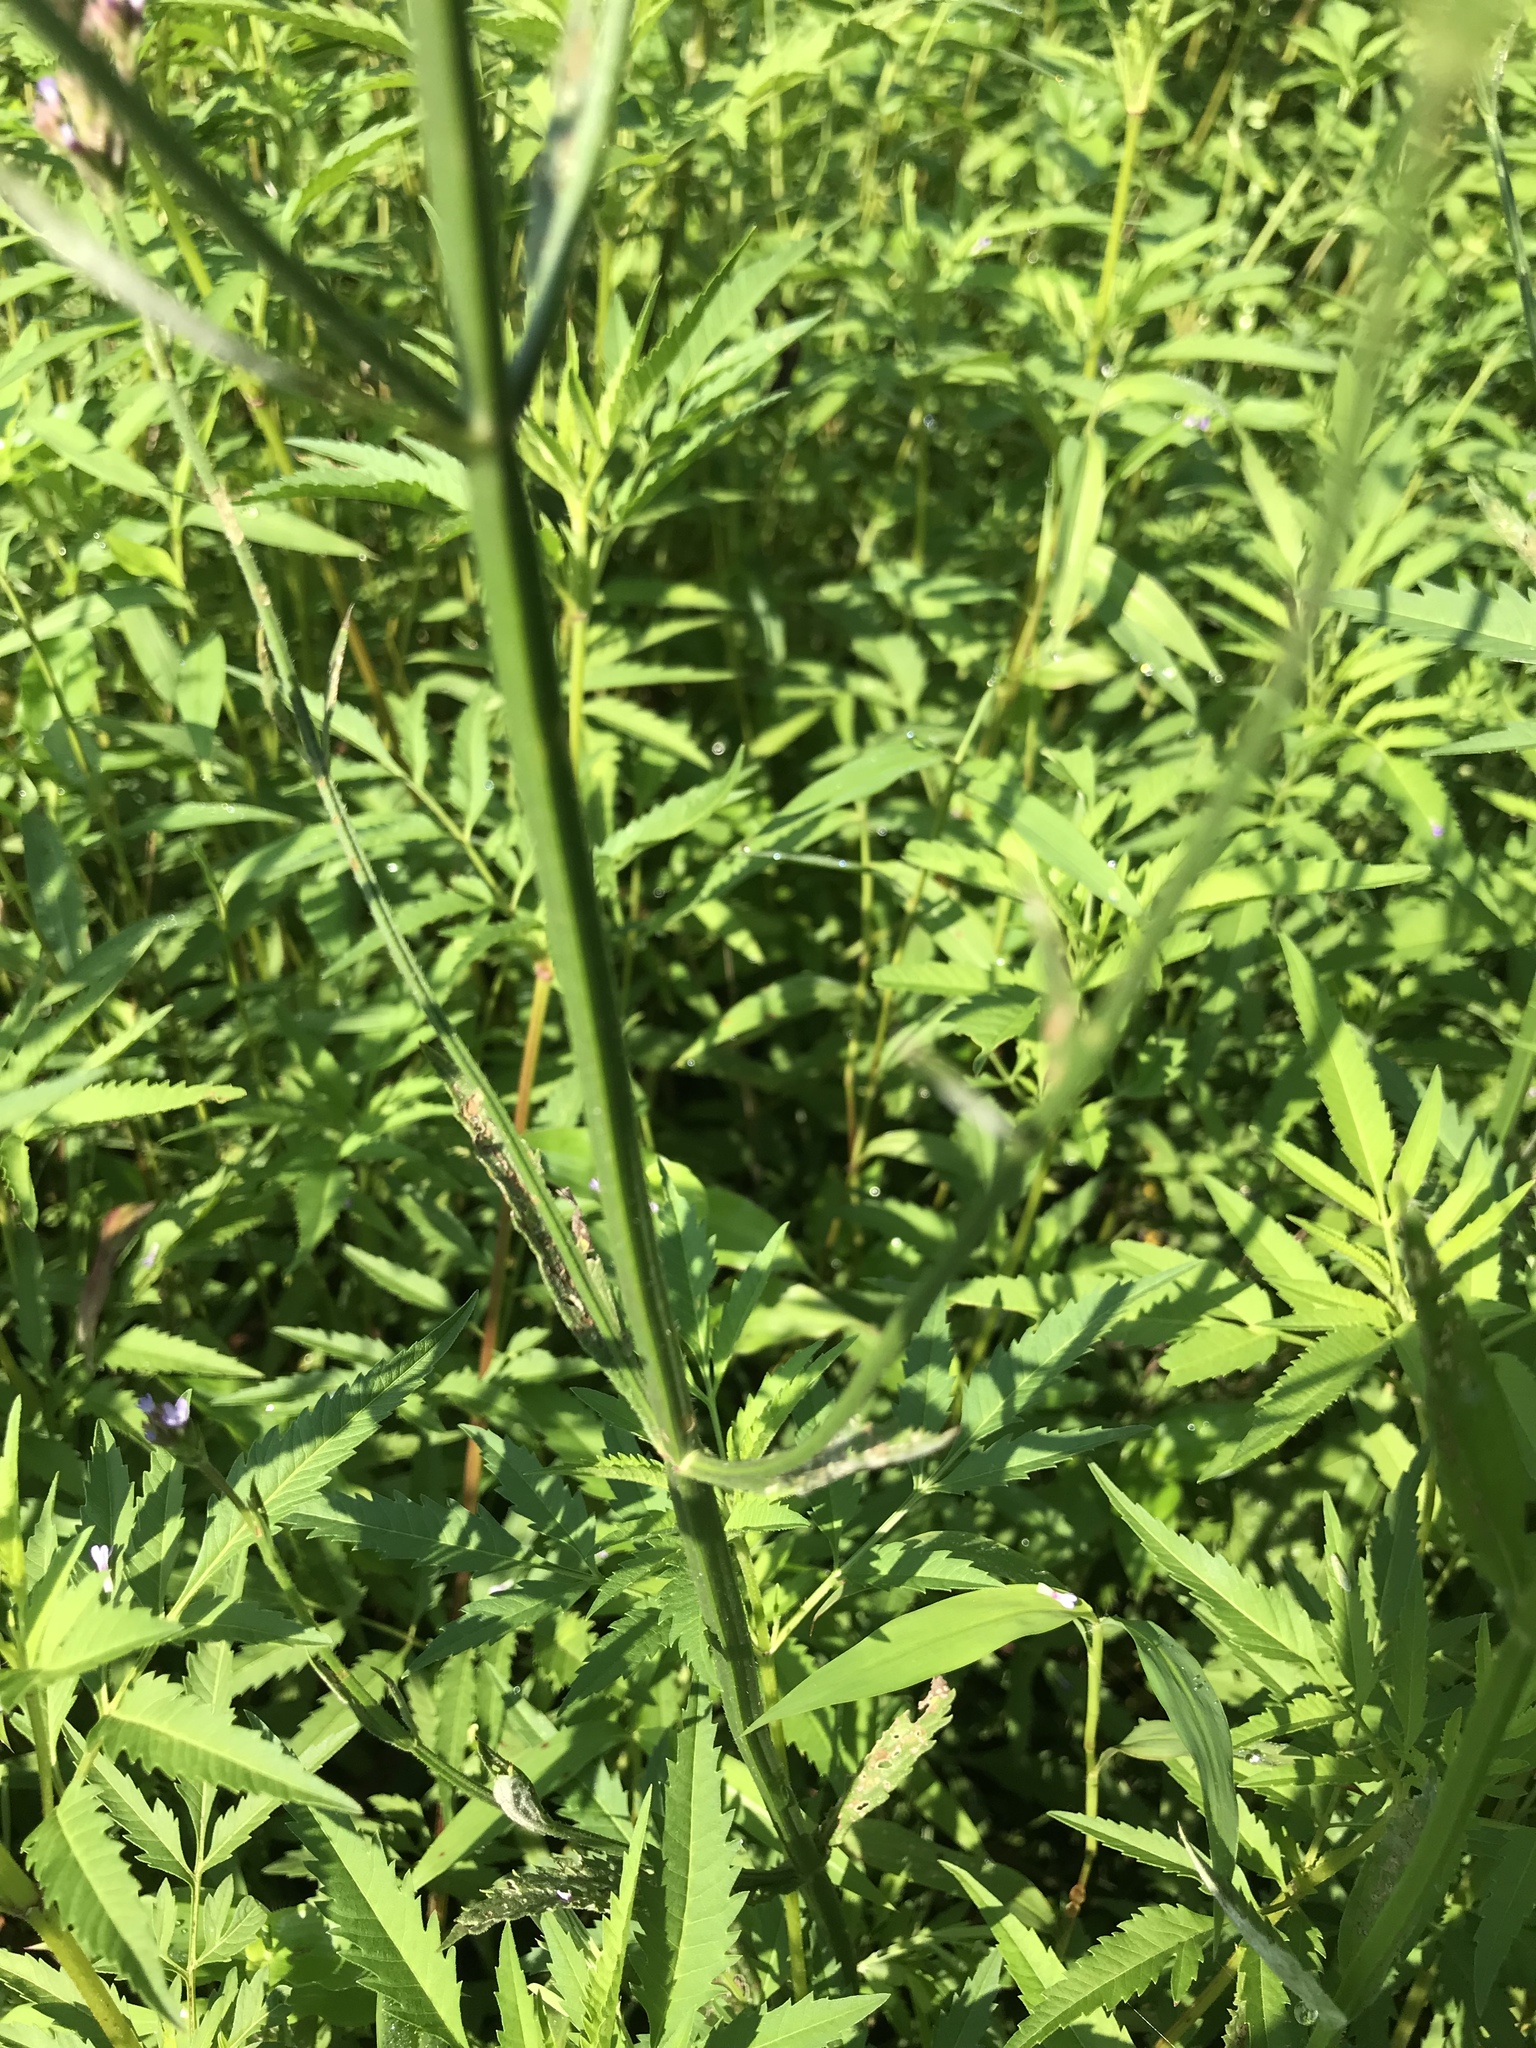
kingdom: Plantae
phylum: Tracheophyta
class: Magnoliopsida
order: Lamiales
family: Verbenaceae
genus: Verbena
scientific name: Verbena brasiliensis
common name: Brazilian vervain
